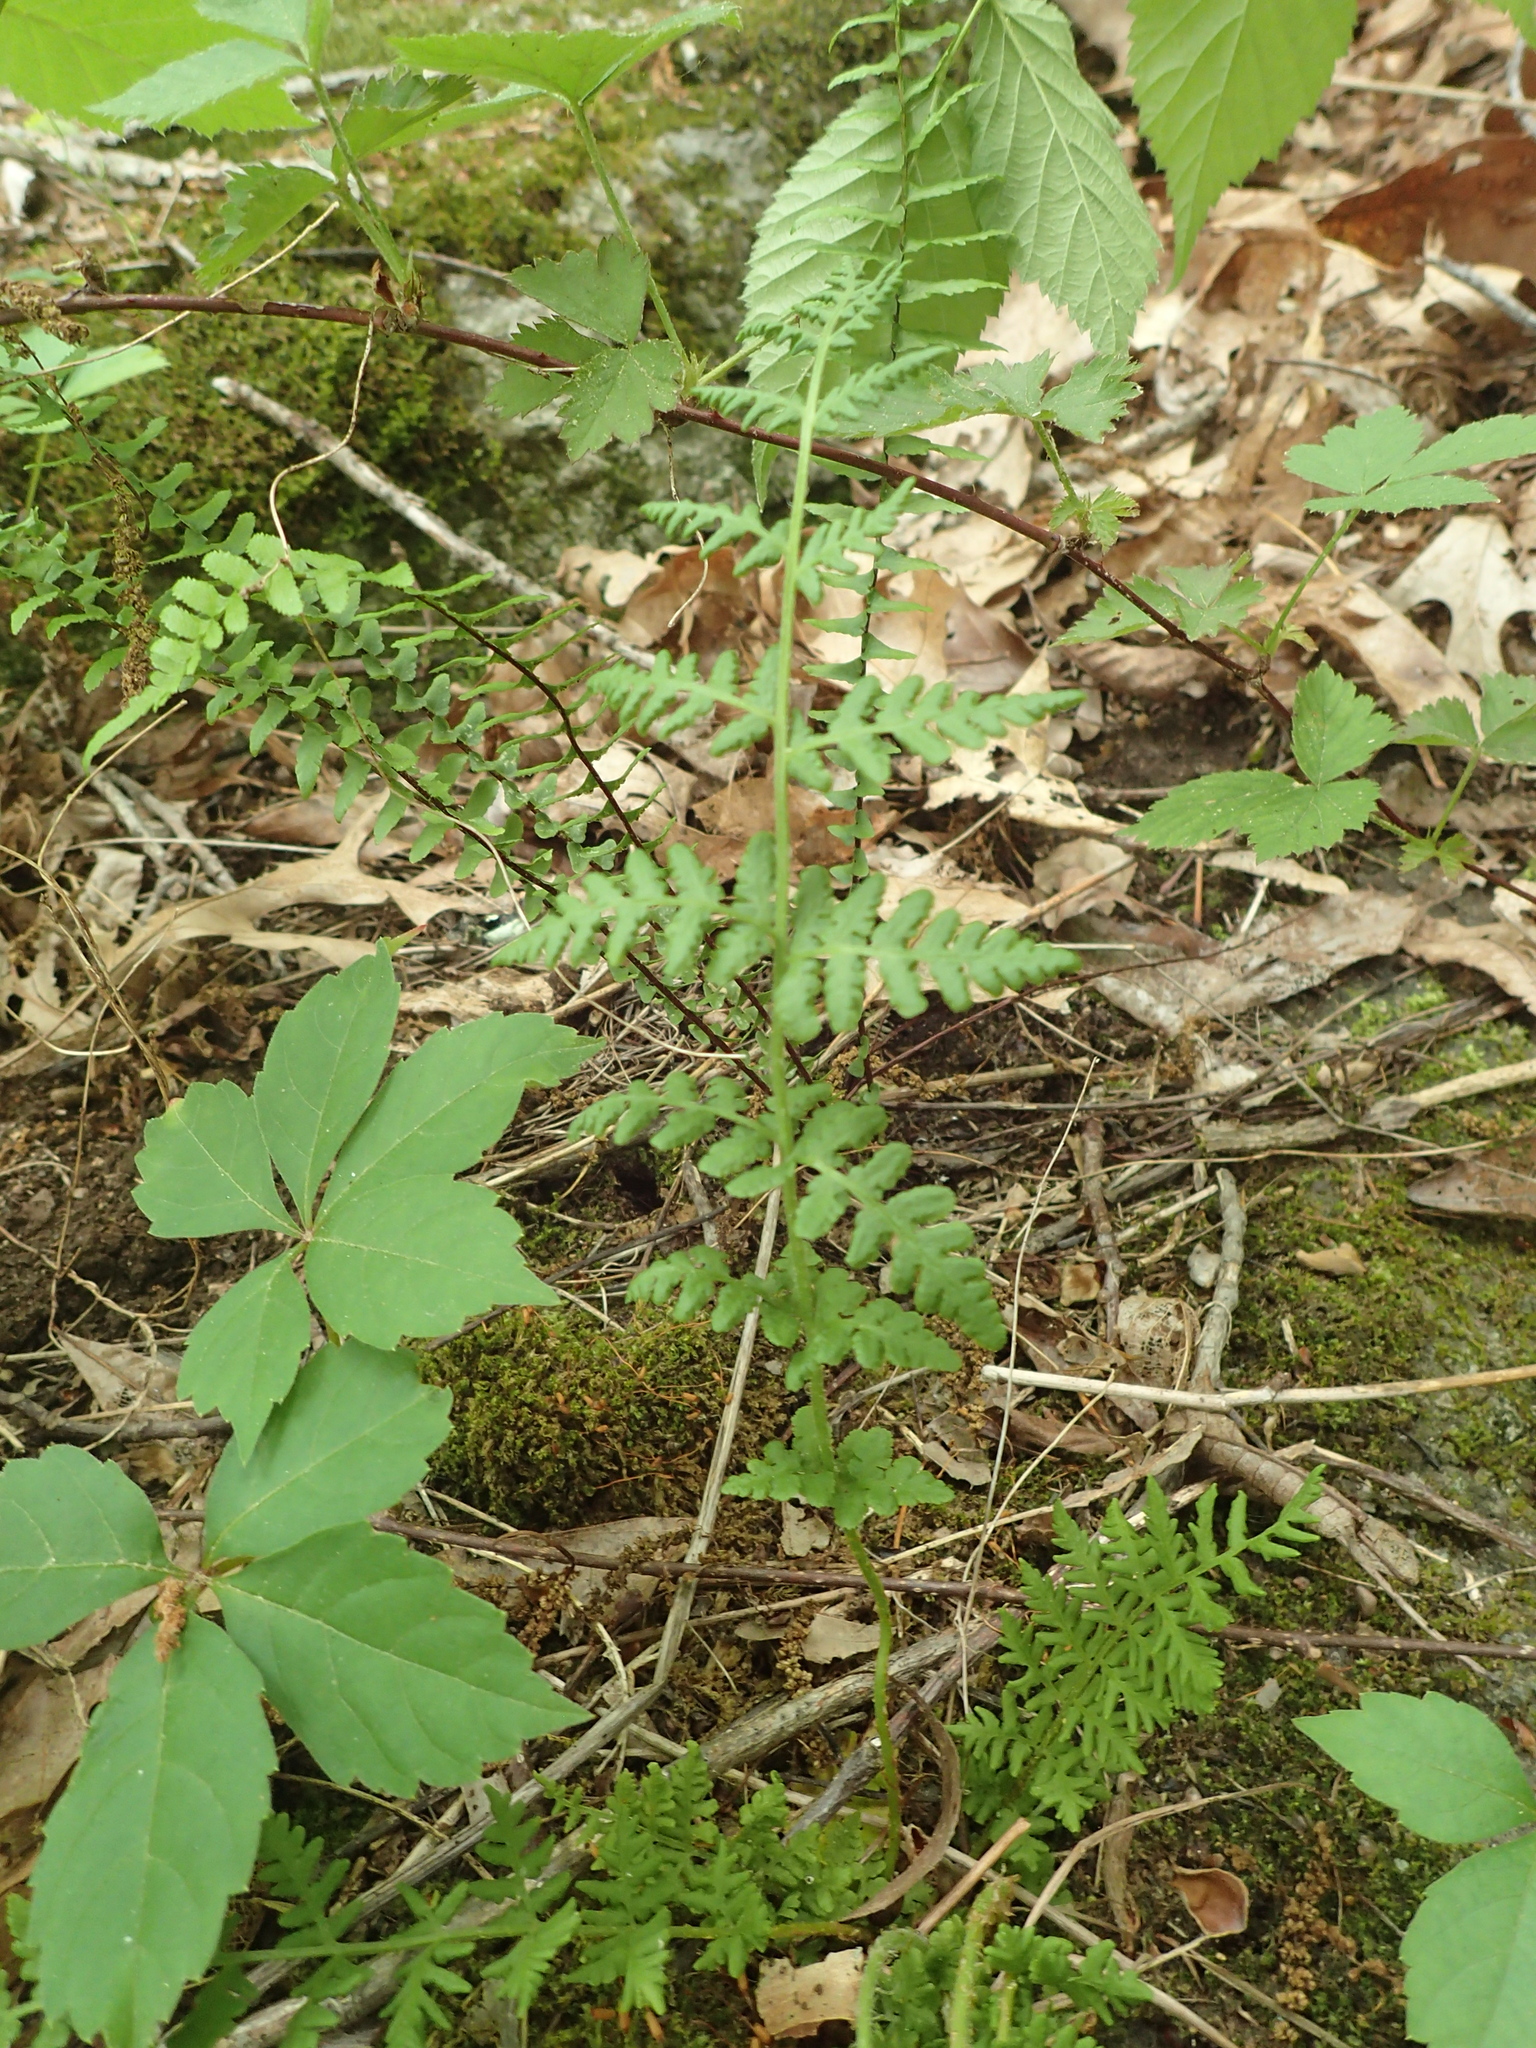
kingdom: Plantae
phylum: Tracheophyta
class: Polypodiopsida
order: Polypodiales
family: Woodsiaceae
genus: Physematium
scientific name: Physematium obtusum
